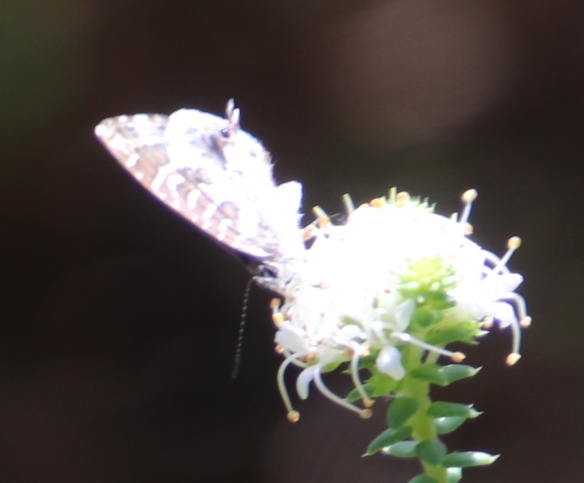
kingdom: Animalia
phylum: Arthropoda
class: Insecta
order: Lepidoptera
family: Lycaenidae
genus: Cacyreus
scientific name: Cacyreus lingeus
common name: Bush bronze
